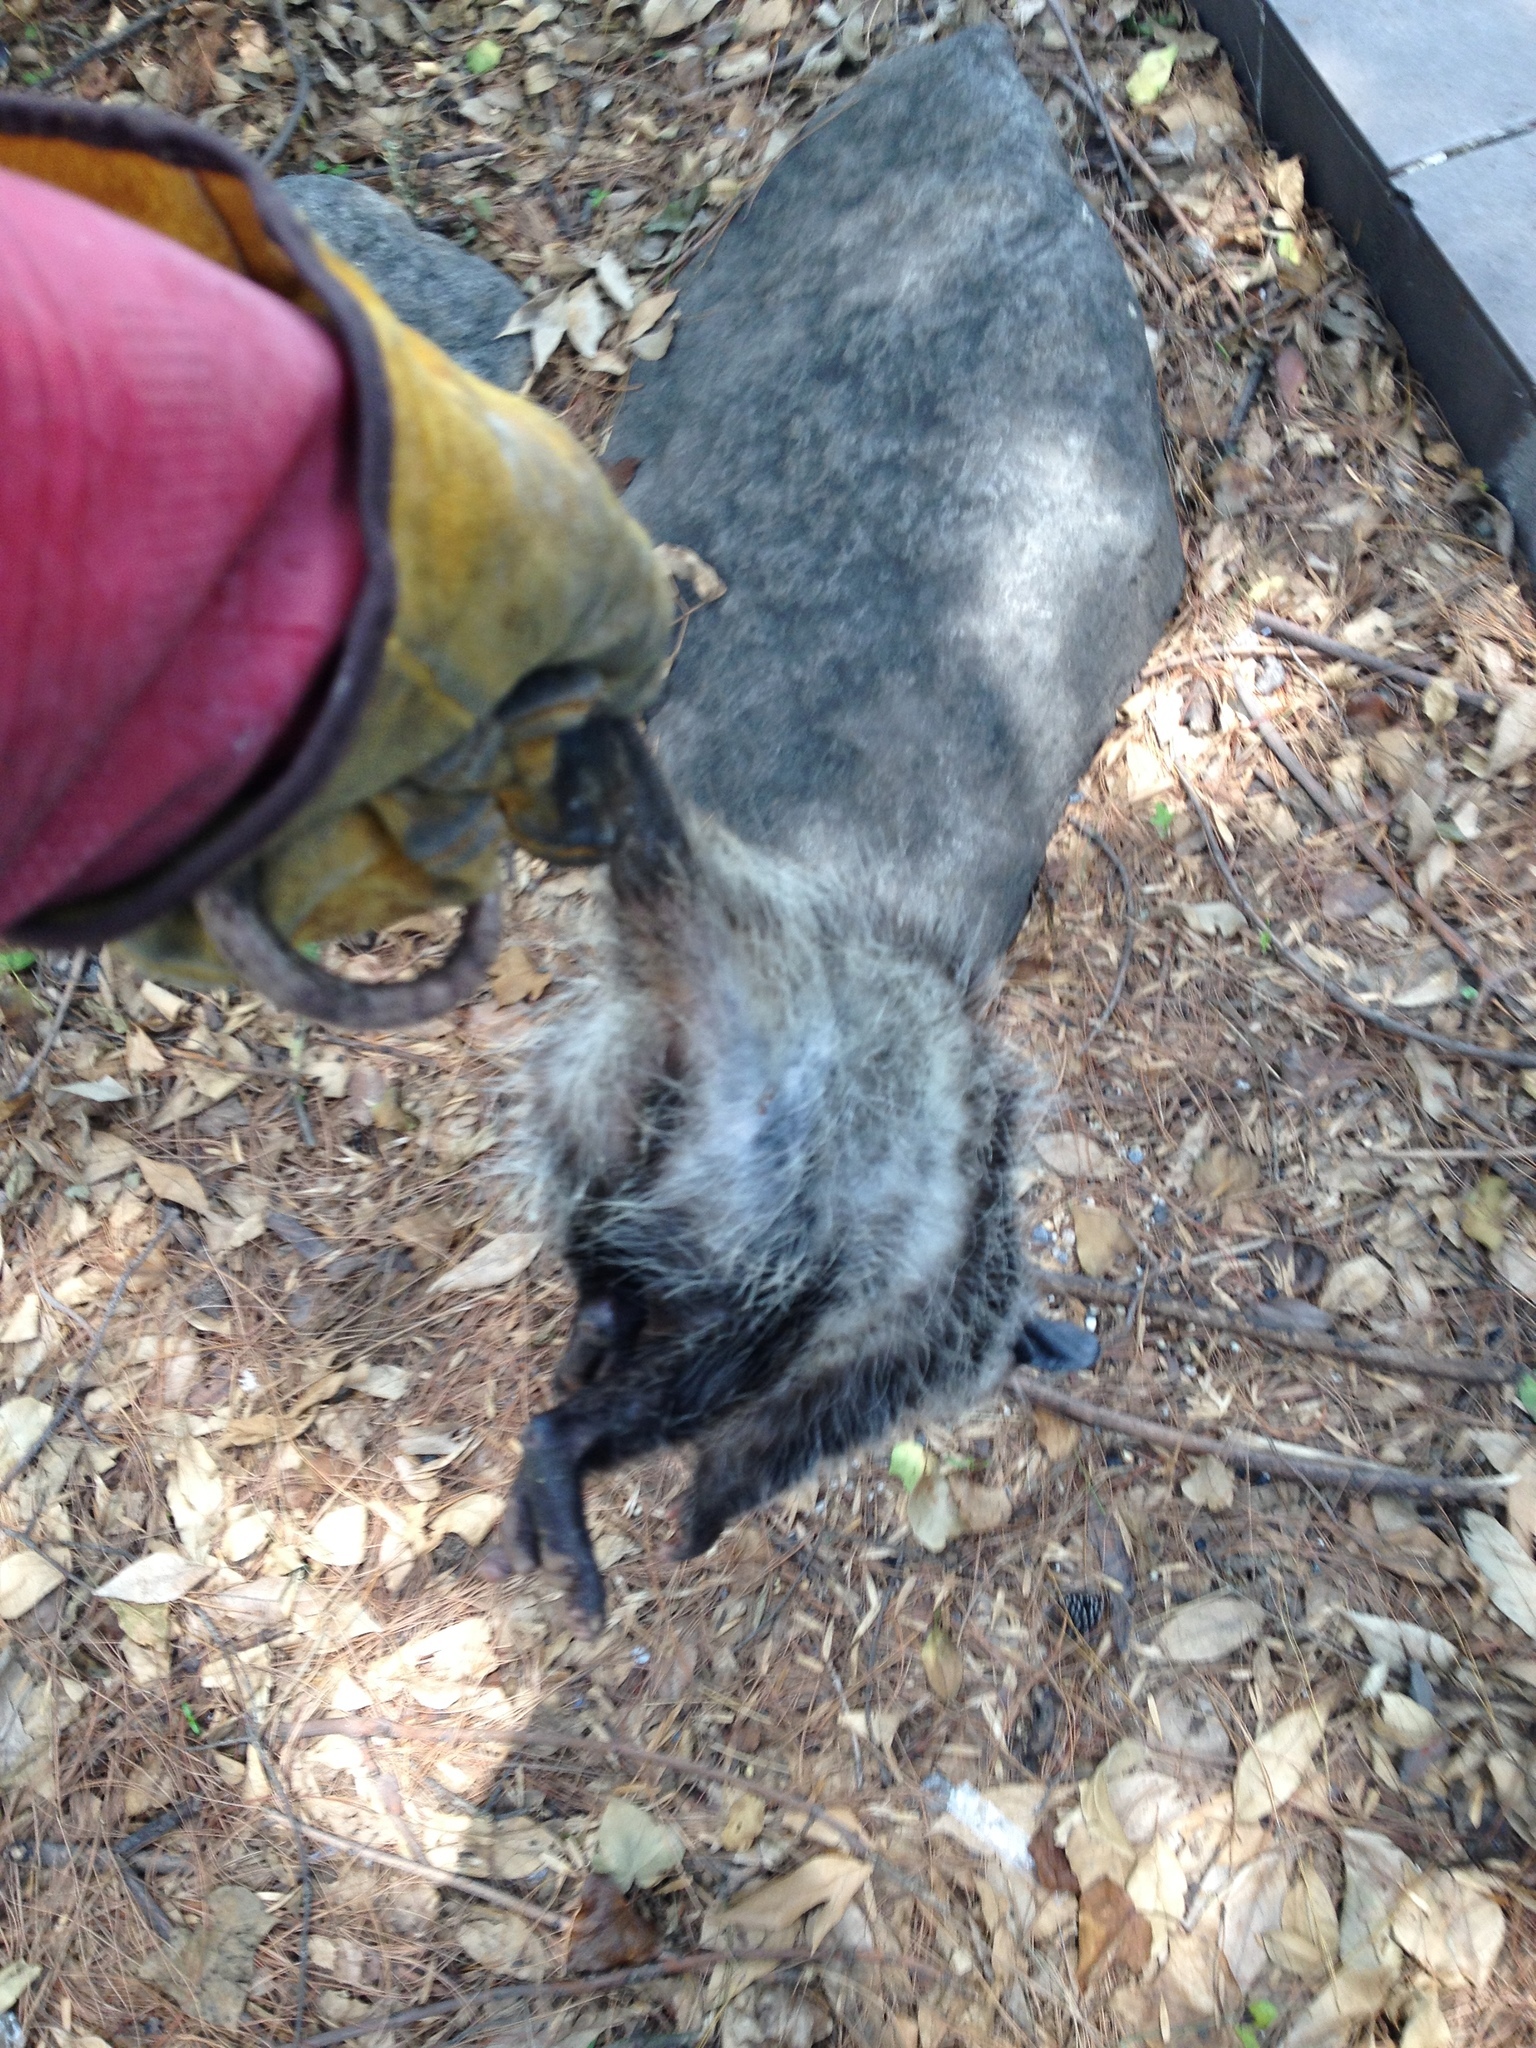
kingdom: Animalia
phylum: Chordata
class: Mammalia
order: Didelphimorphia
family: Didelphidae
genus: Didelphis
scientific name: Didelphis virginiana
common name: Virginia opossum
